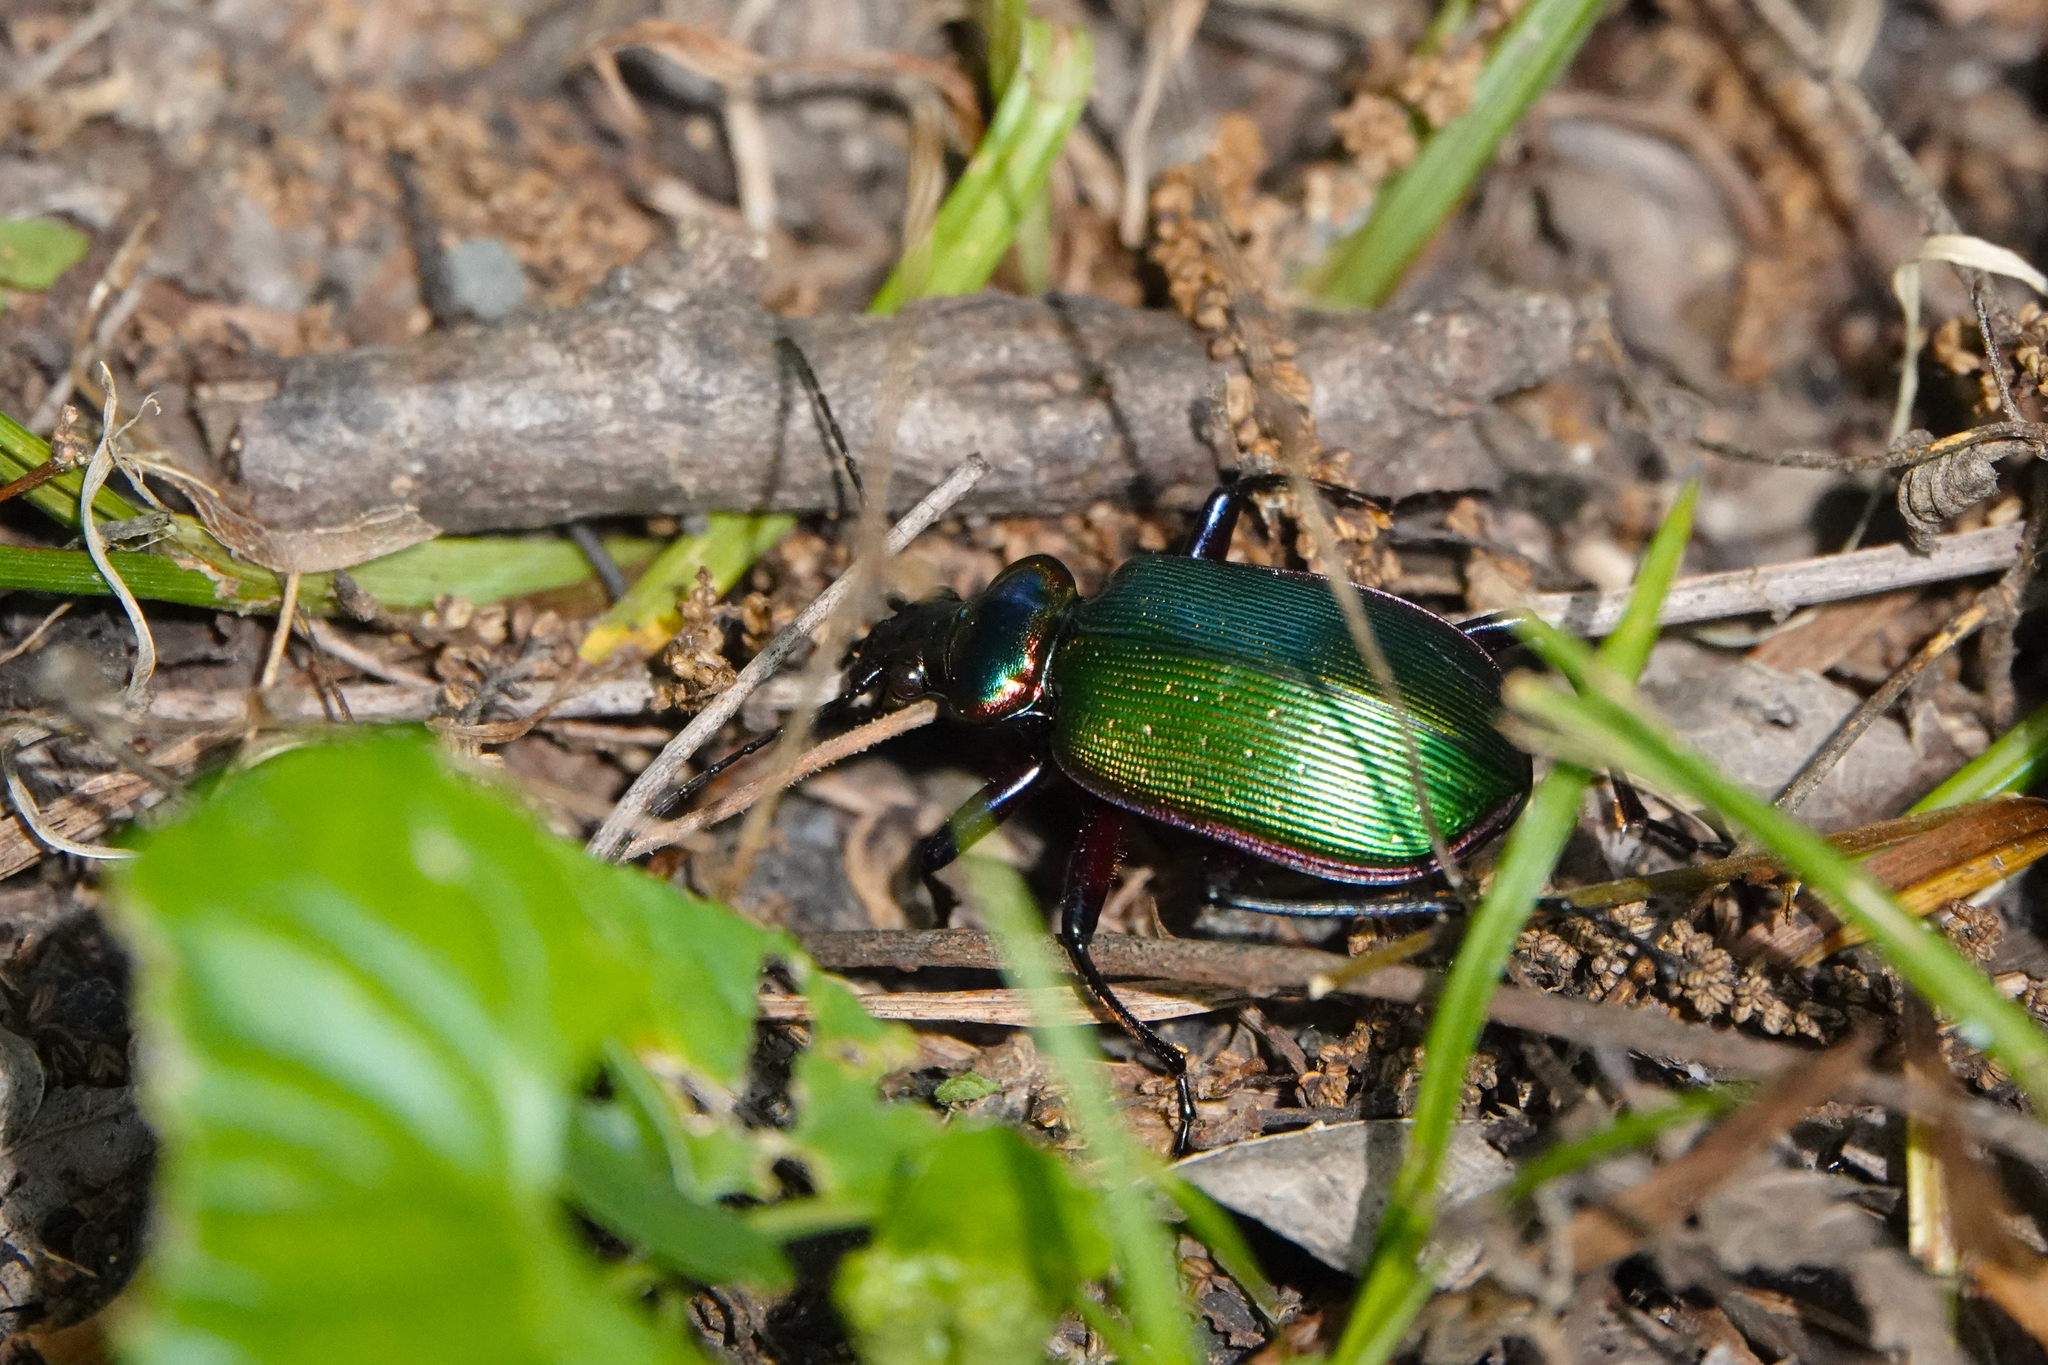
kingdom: Animalia
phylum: Arthropoda
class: Insecta
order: Coleoptera
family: Carabidae
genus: Calosoma
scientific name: Calosoma scrutator
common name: Fiery searcher beetle
